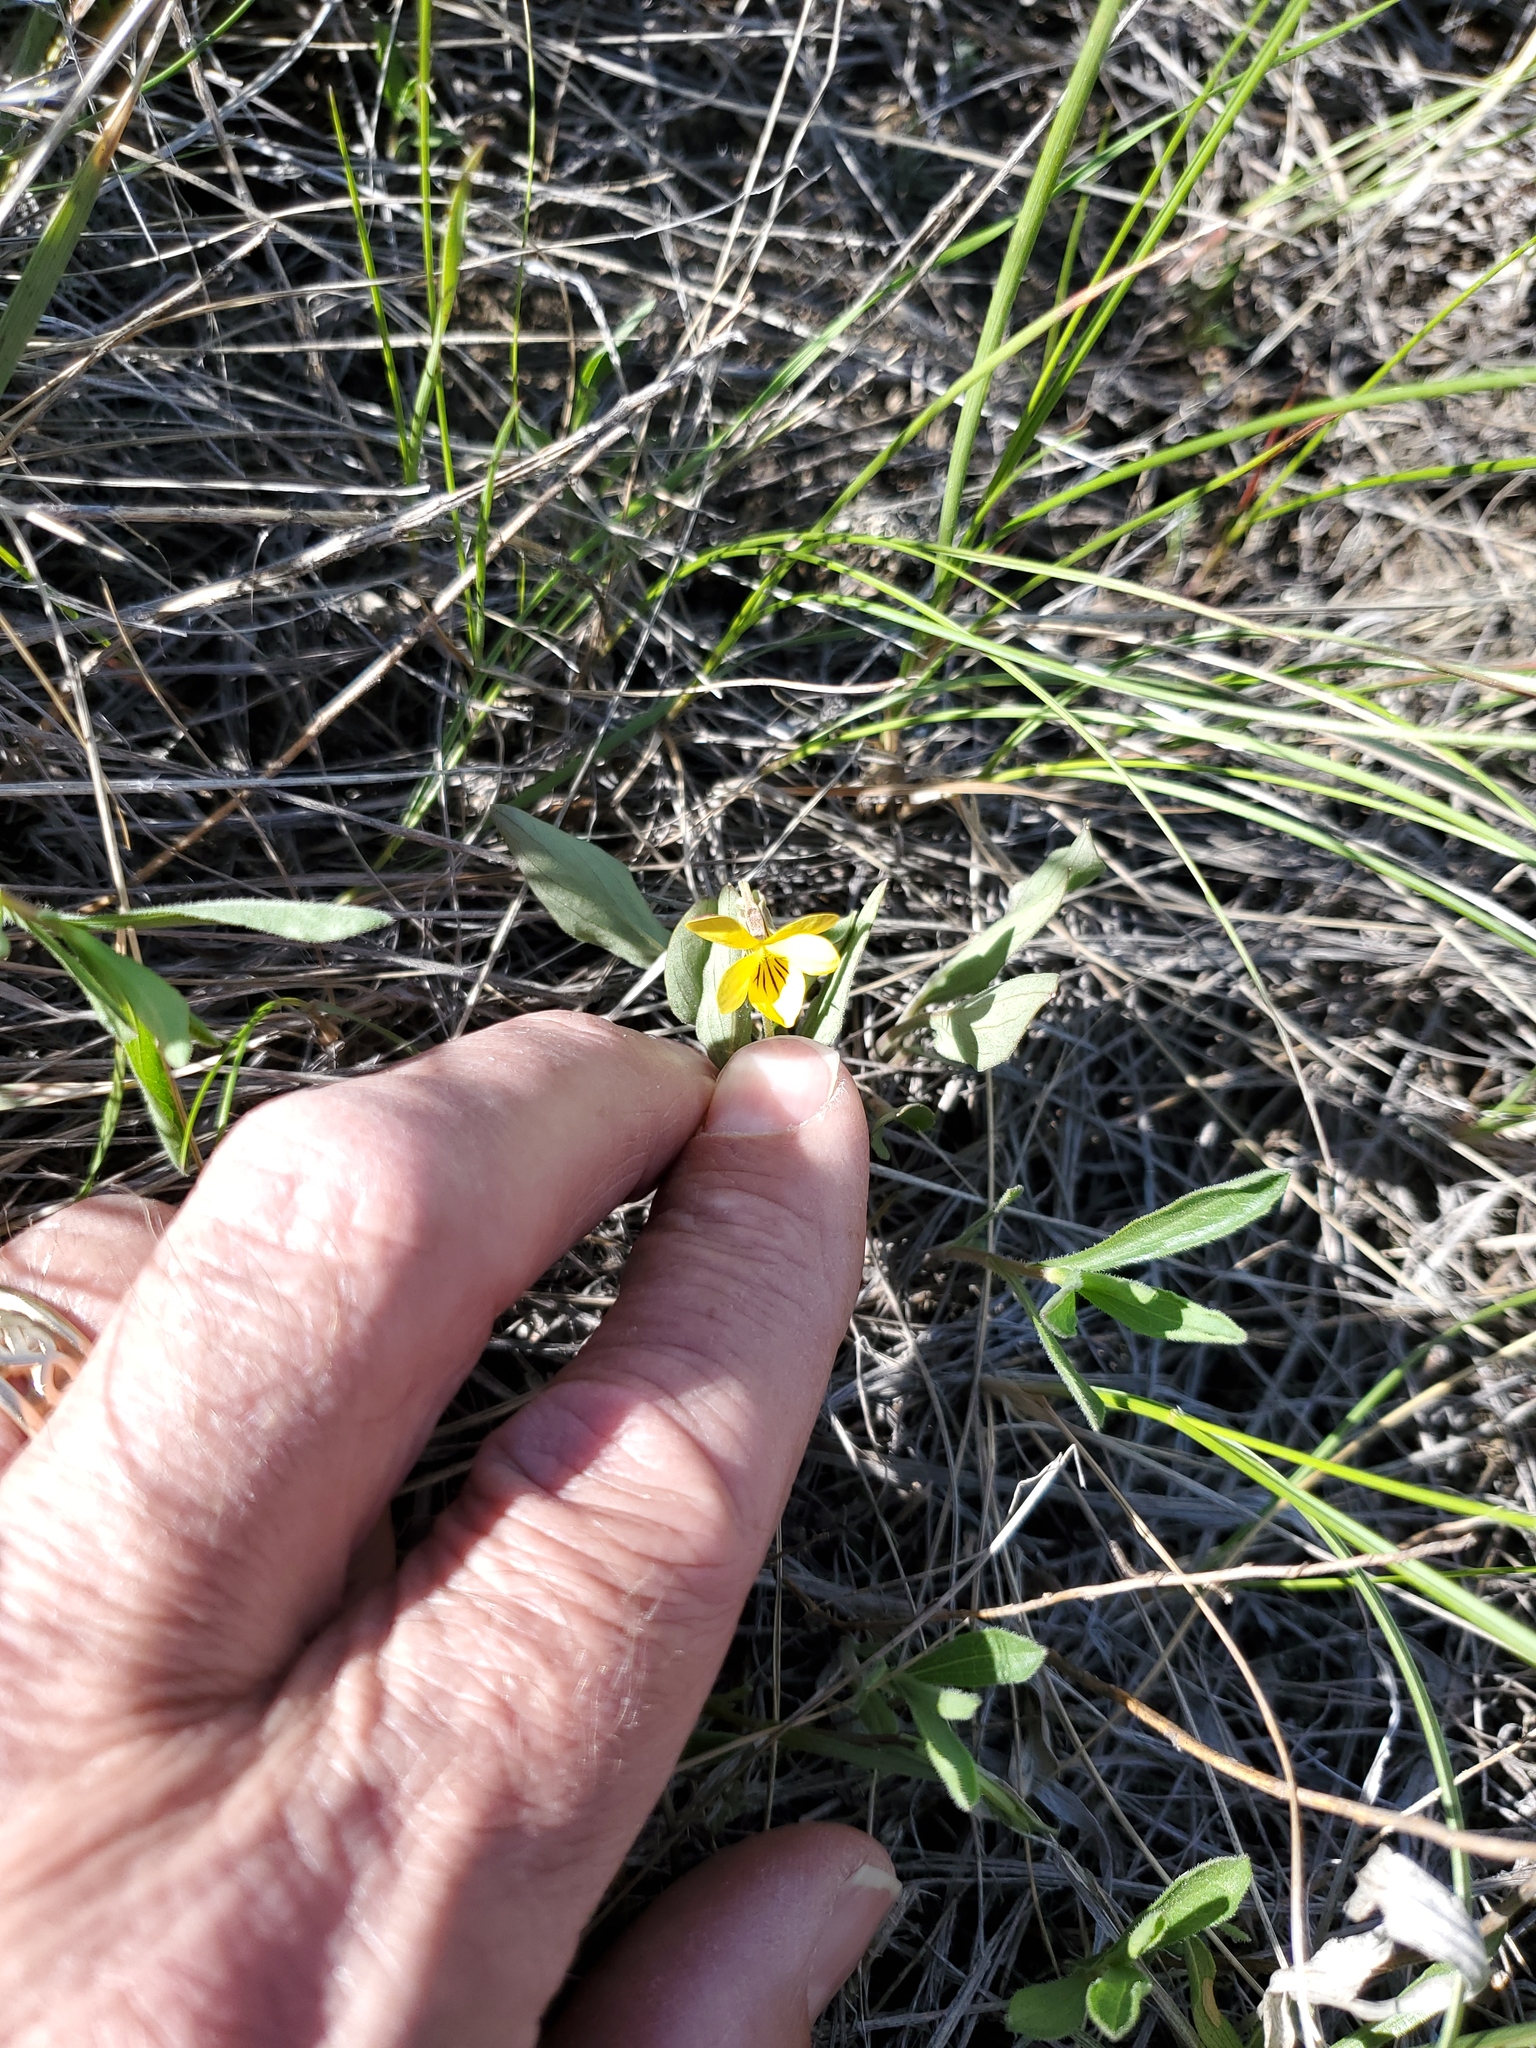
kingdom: Plantae
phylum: Tracheophyta
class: Magnoliopsida
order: Malpighiales
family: Violaceae
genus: Viola
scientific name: Viola nuttallii
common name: Yellow prairie violet
